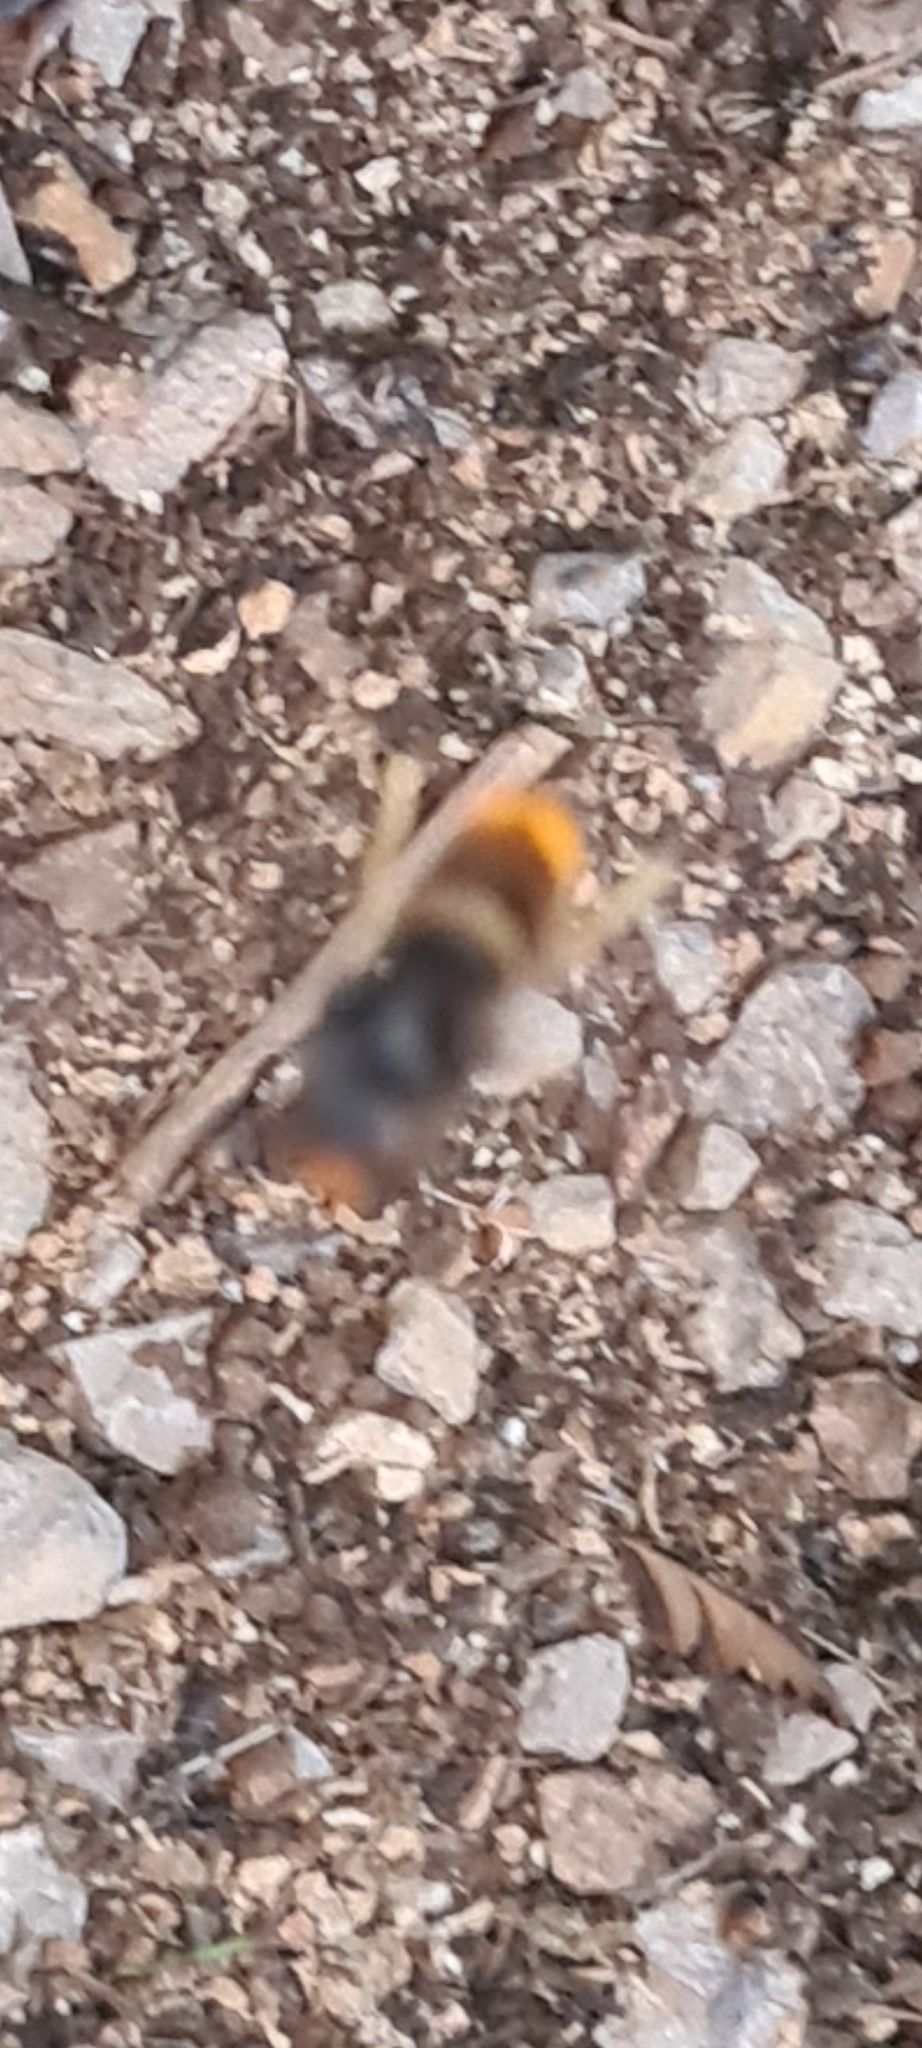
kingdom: Animalia
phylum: Arthropoda
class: Insecta
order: Hymenoptera
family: Vespidae
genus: Vespa
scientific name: Vespa velutina
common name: Asian hornet
